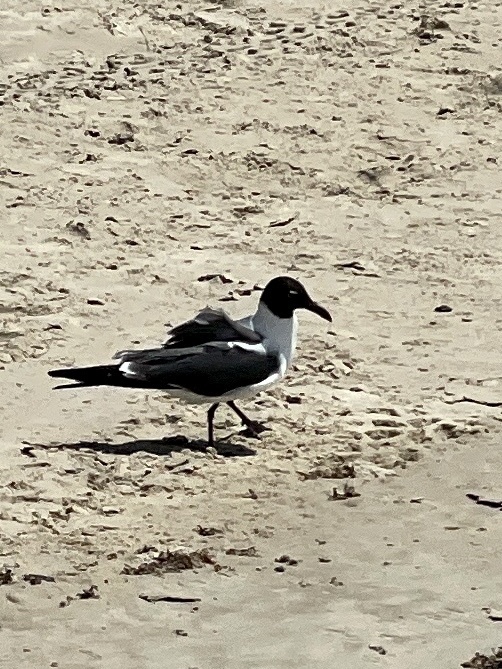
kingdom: Animalia
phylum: Chordata
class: Aves
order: Charadriiformes
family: Laridae
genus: Leucophaeus
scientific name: Leucophaeus atricilla
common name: Laughing gull
